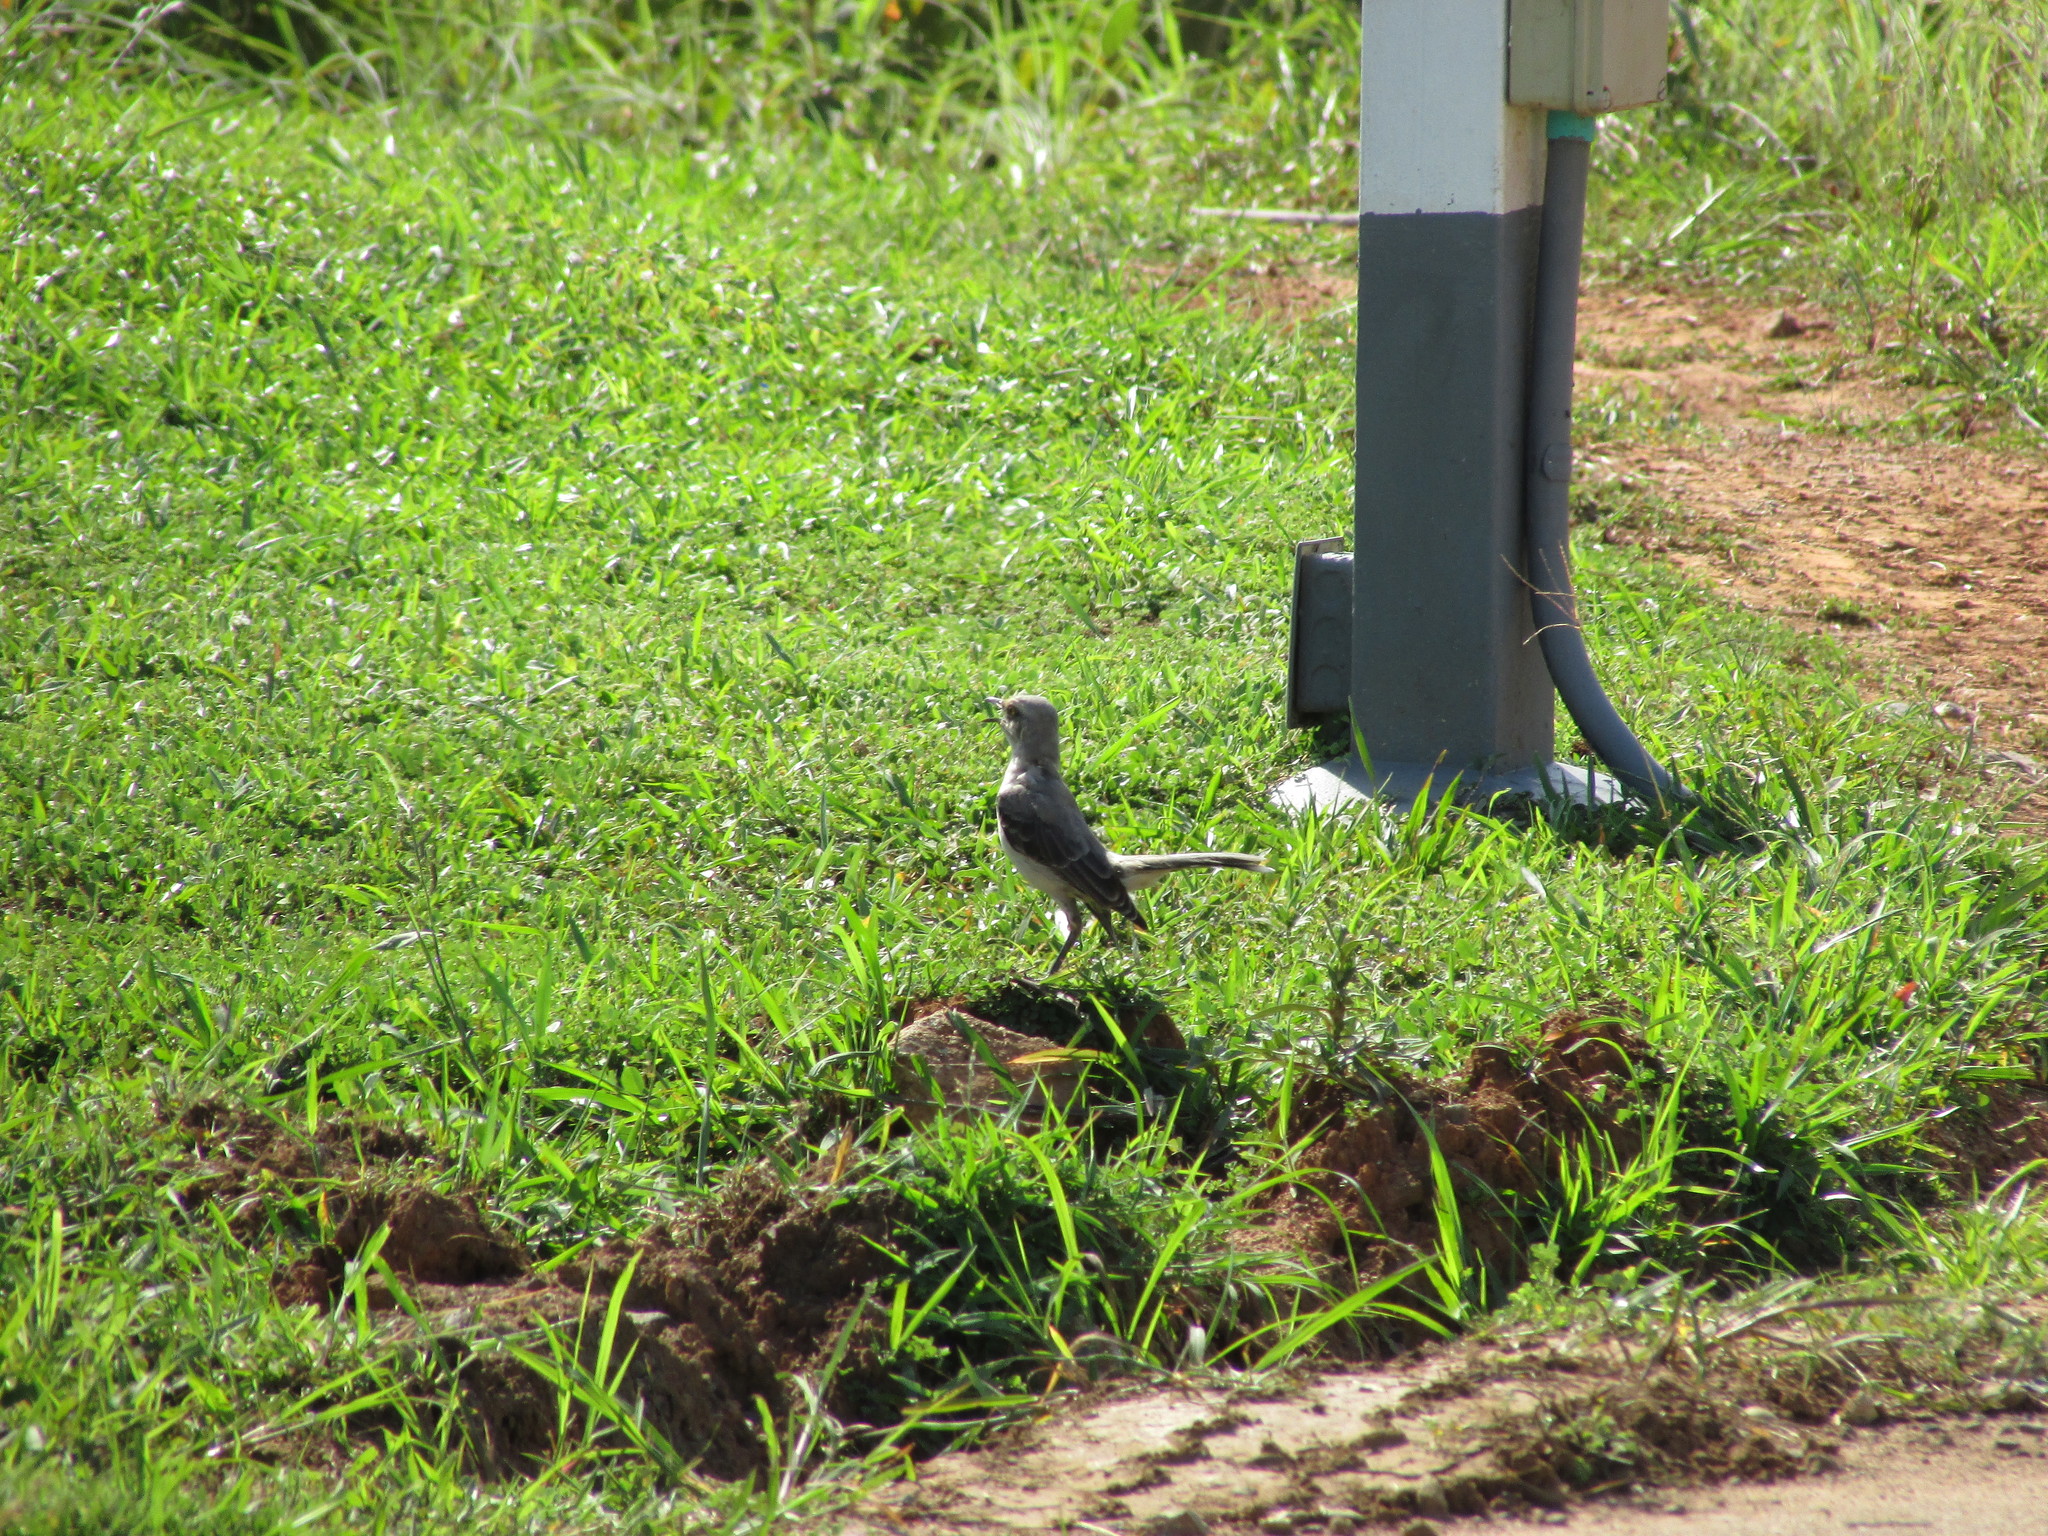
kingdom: Animalia
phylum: Chordata
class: Aves
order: Passeriformes
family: Mimidae
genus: Mimus
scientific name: Mimus gilvus
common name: Tropical mockingbird
